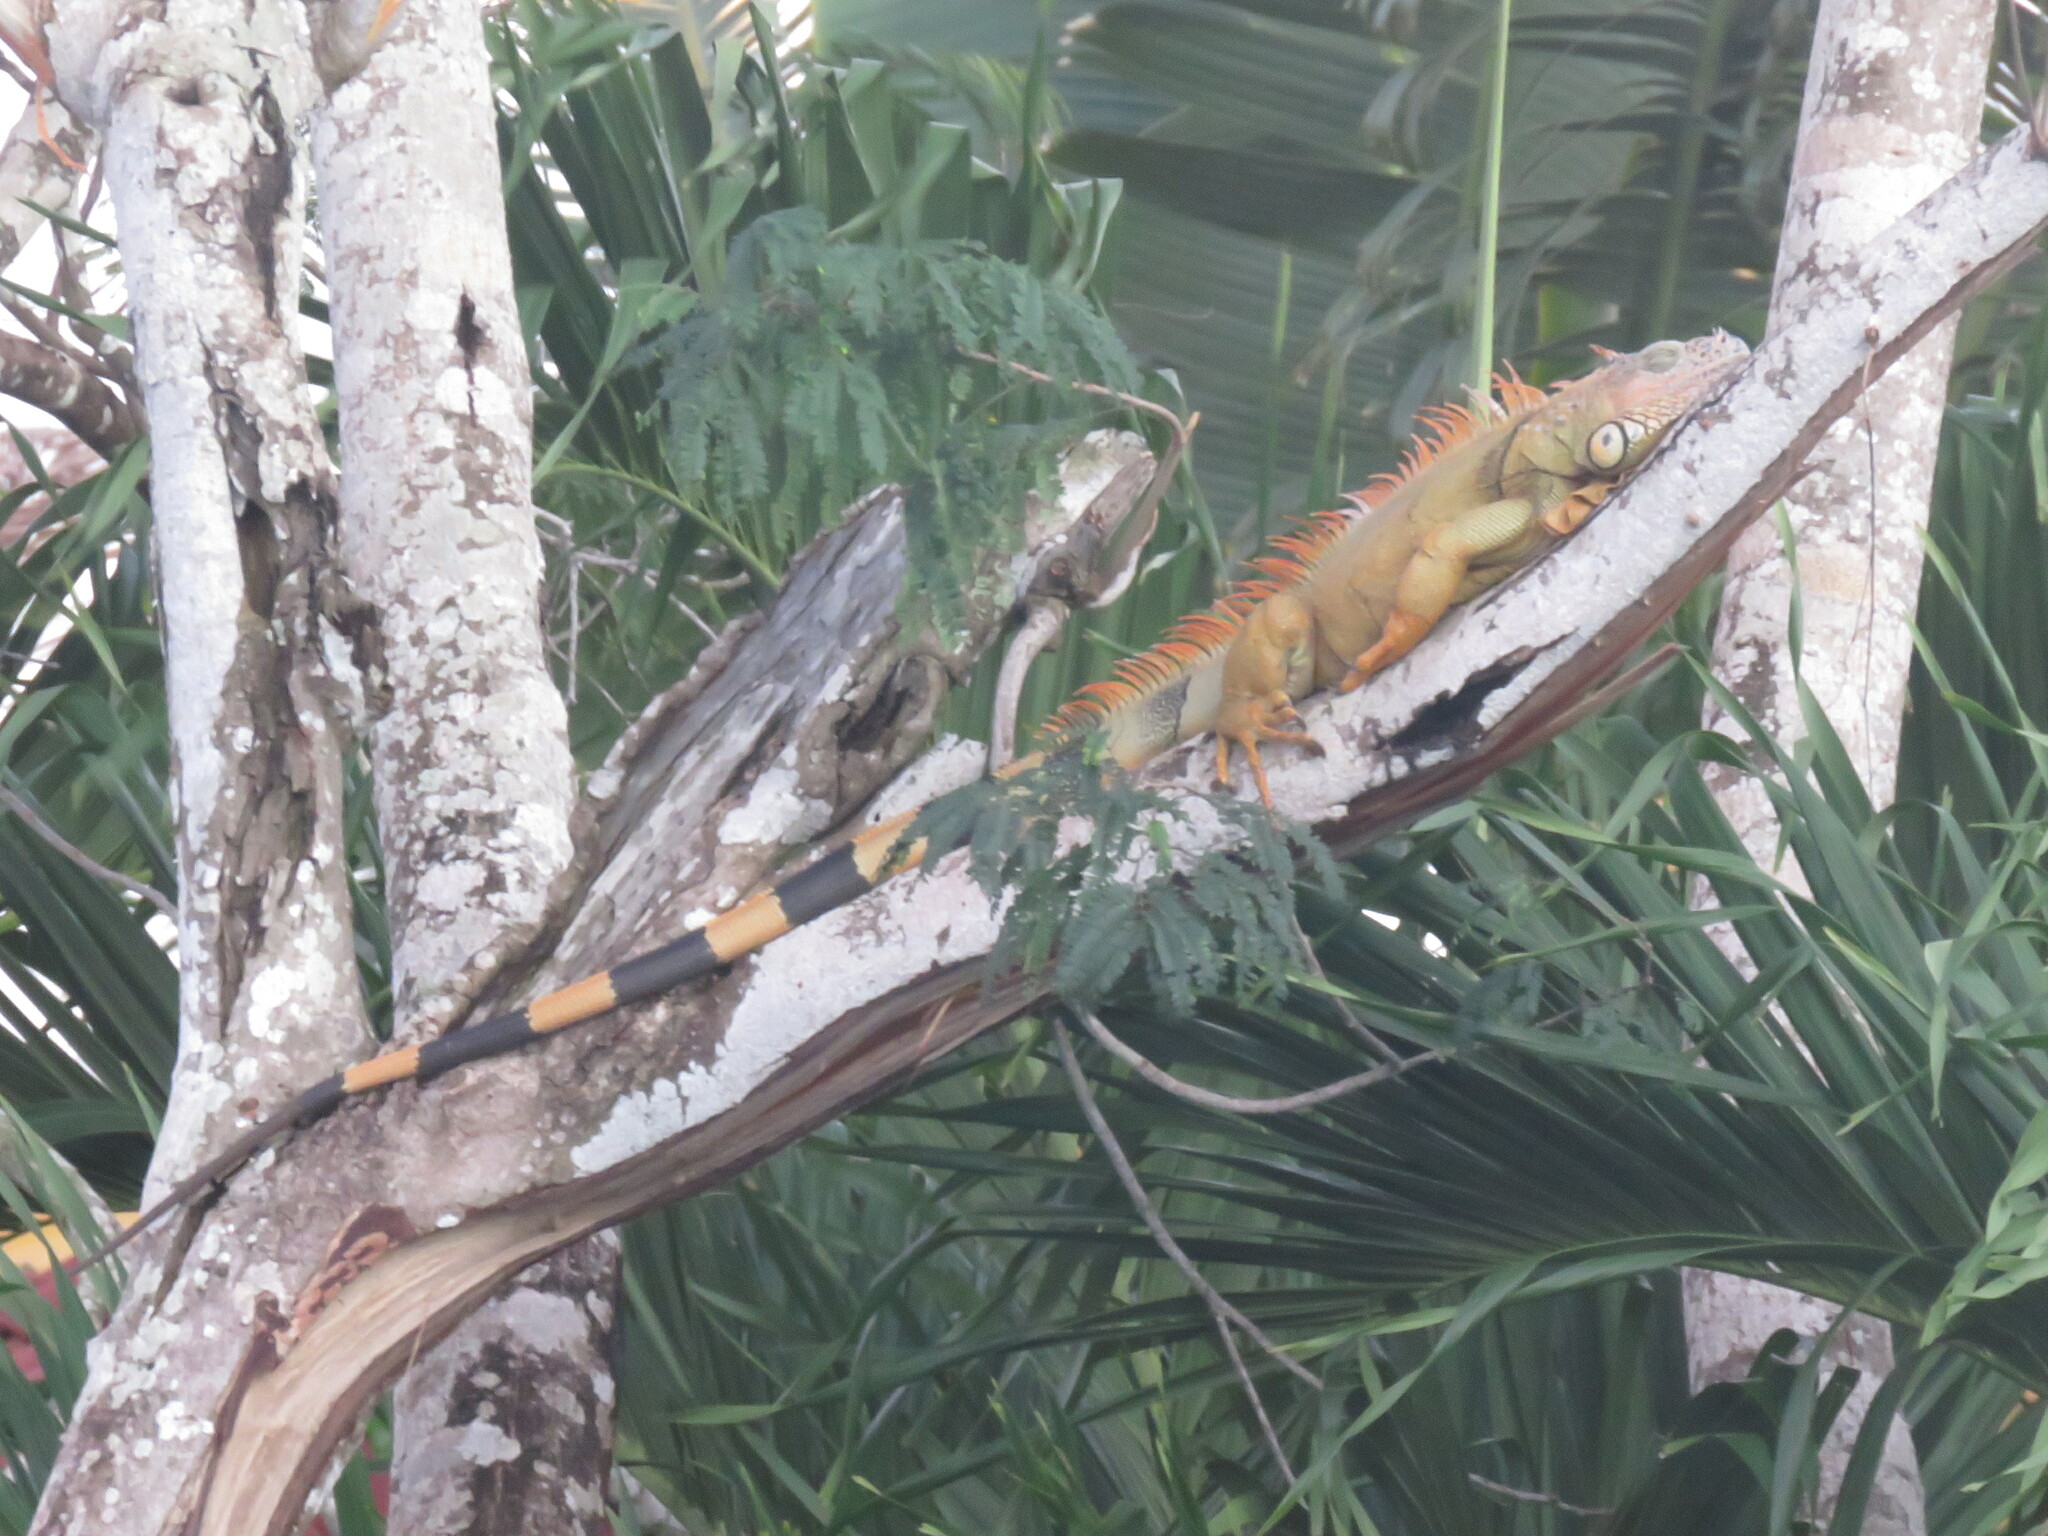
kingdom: Animalia
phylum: Chordata
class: Squamata
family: Iguanidae
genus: Iguana
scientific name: Iguana iguana
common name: Green iguana
